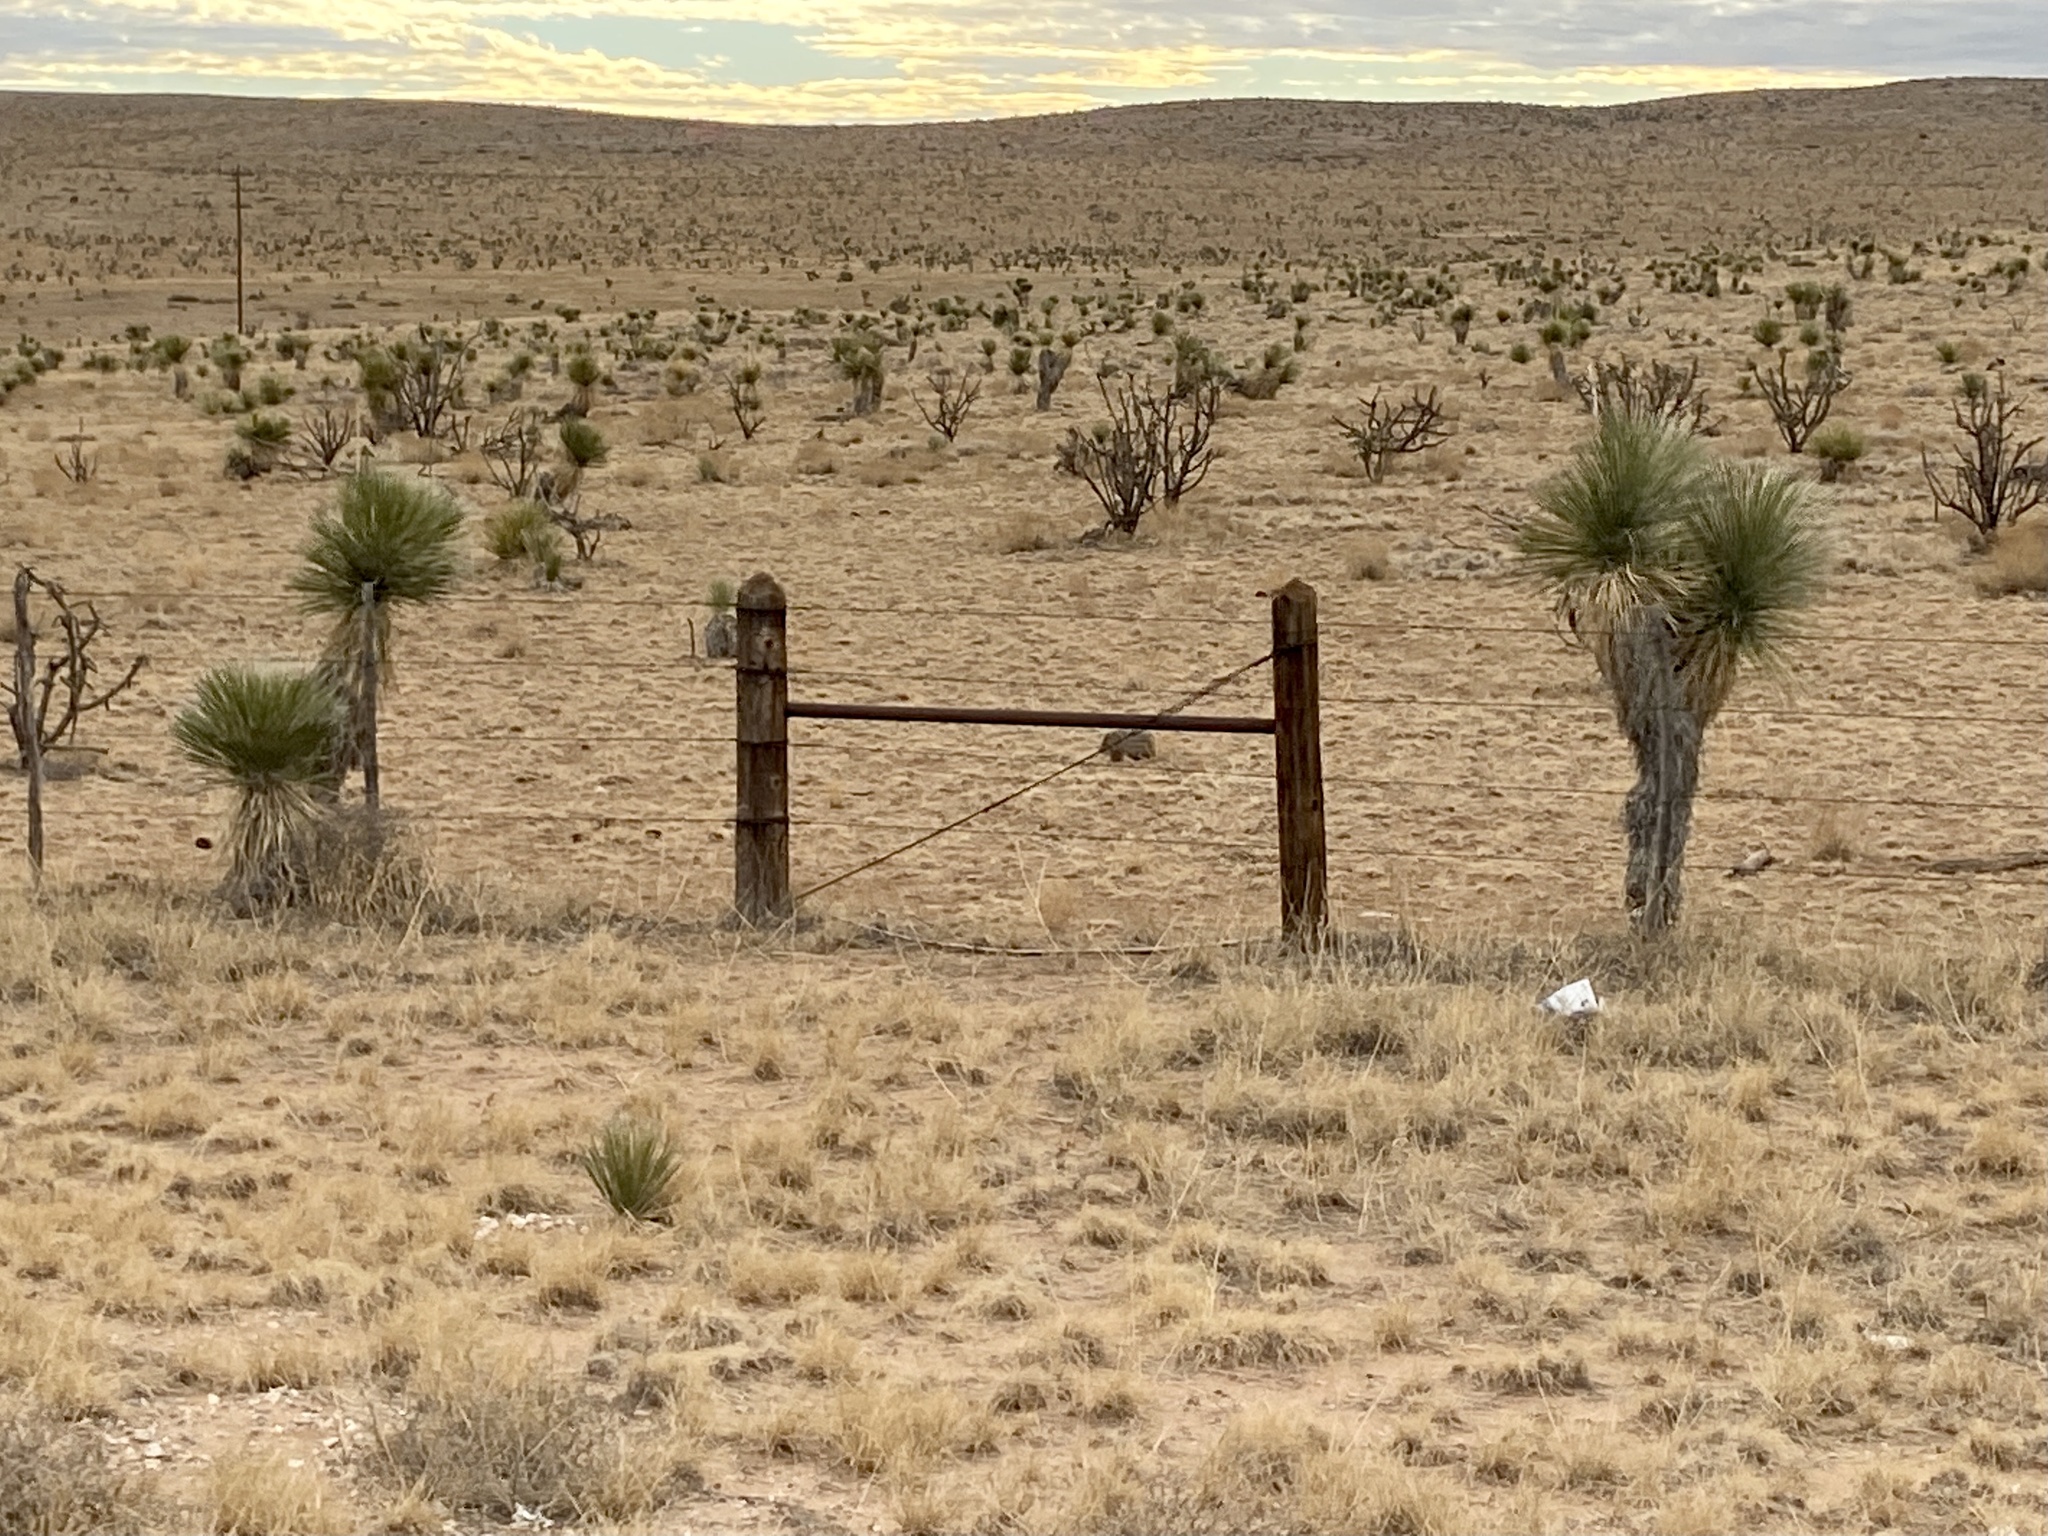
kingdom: Plantae
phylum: Tracheophyta
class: Liliopsida
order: Asparagales
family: Asparagaceae
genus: Yucca
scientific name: Yucca elata
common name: Palmella
